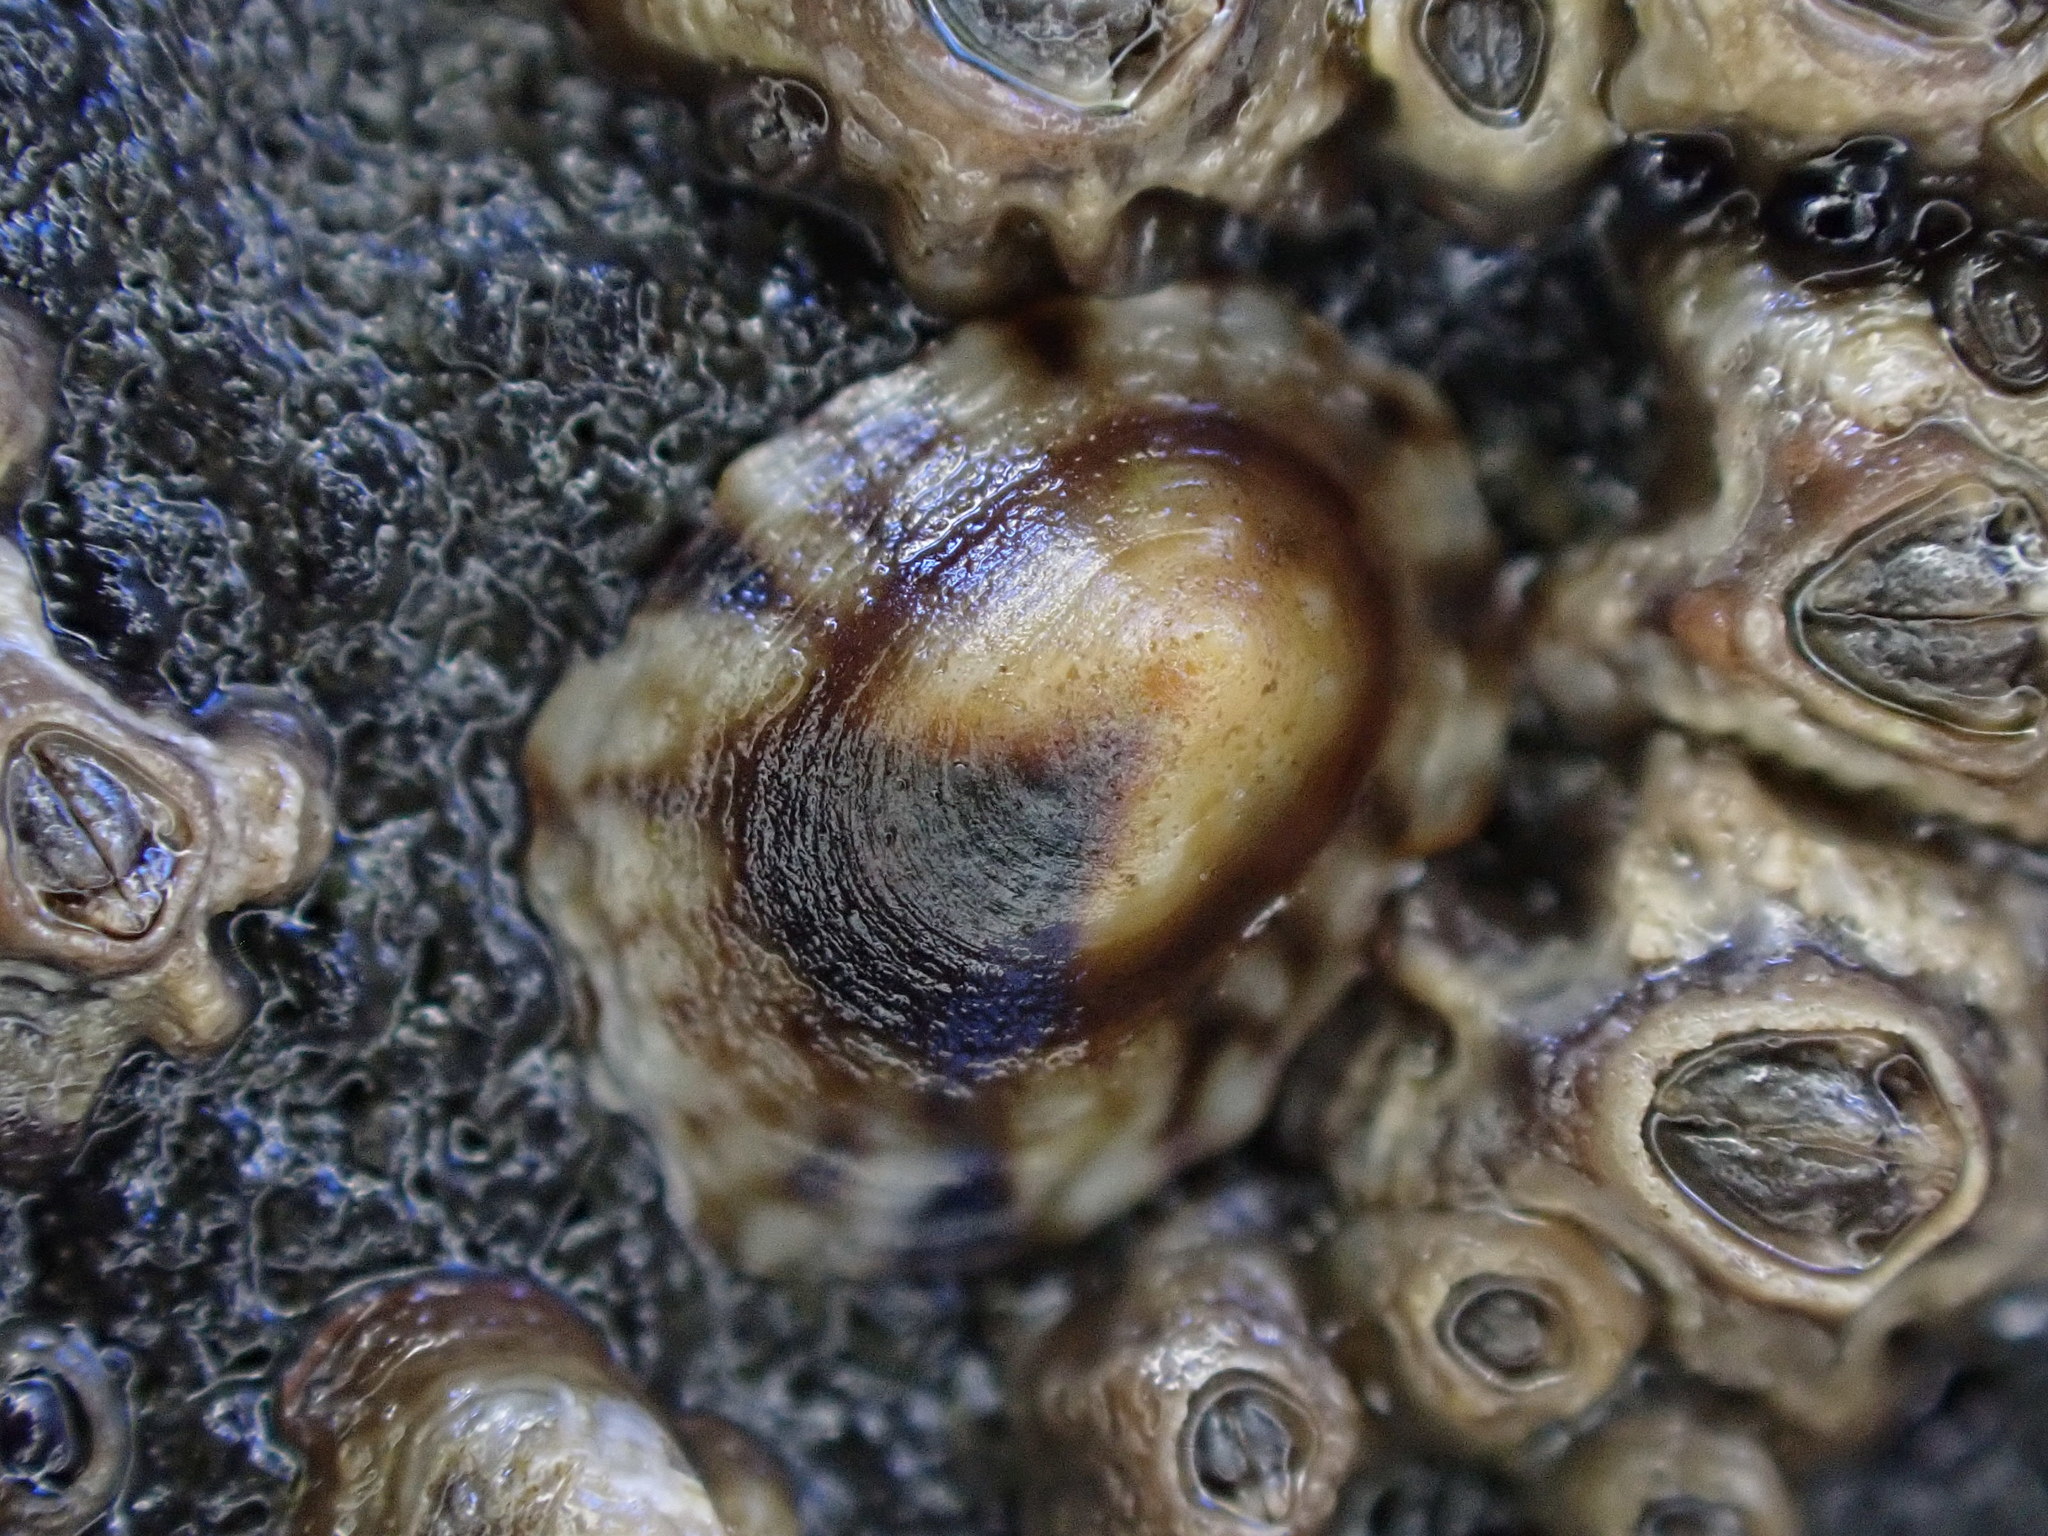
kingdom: Animalia
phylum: Mollusca
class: Gastropoda
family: Lottiidae
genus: Notoacmea
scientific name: Notoacmea parviconoidea
